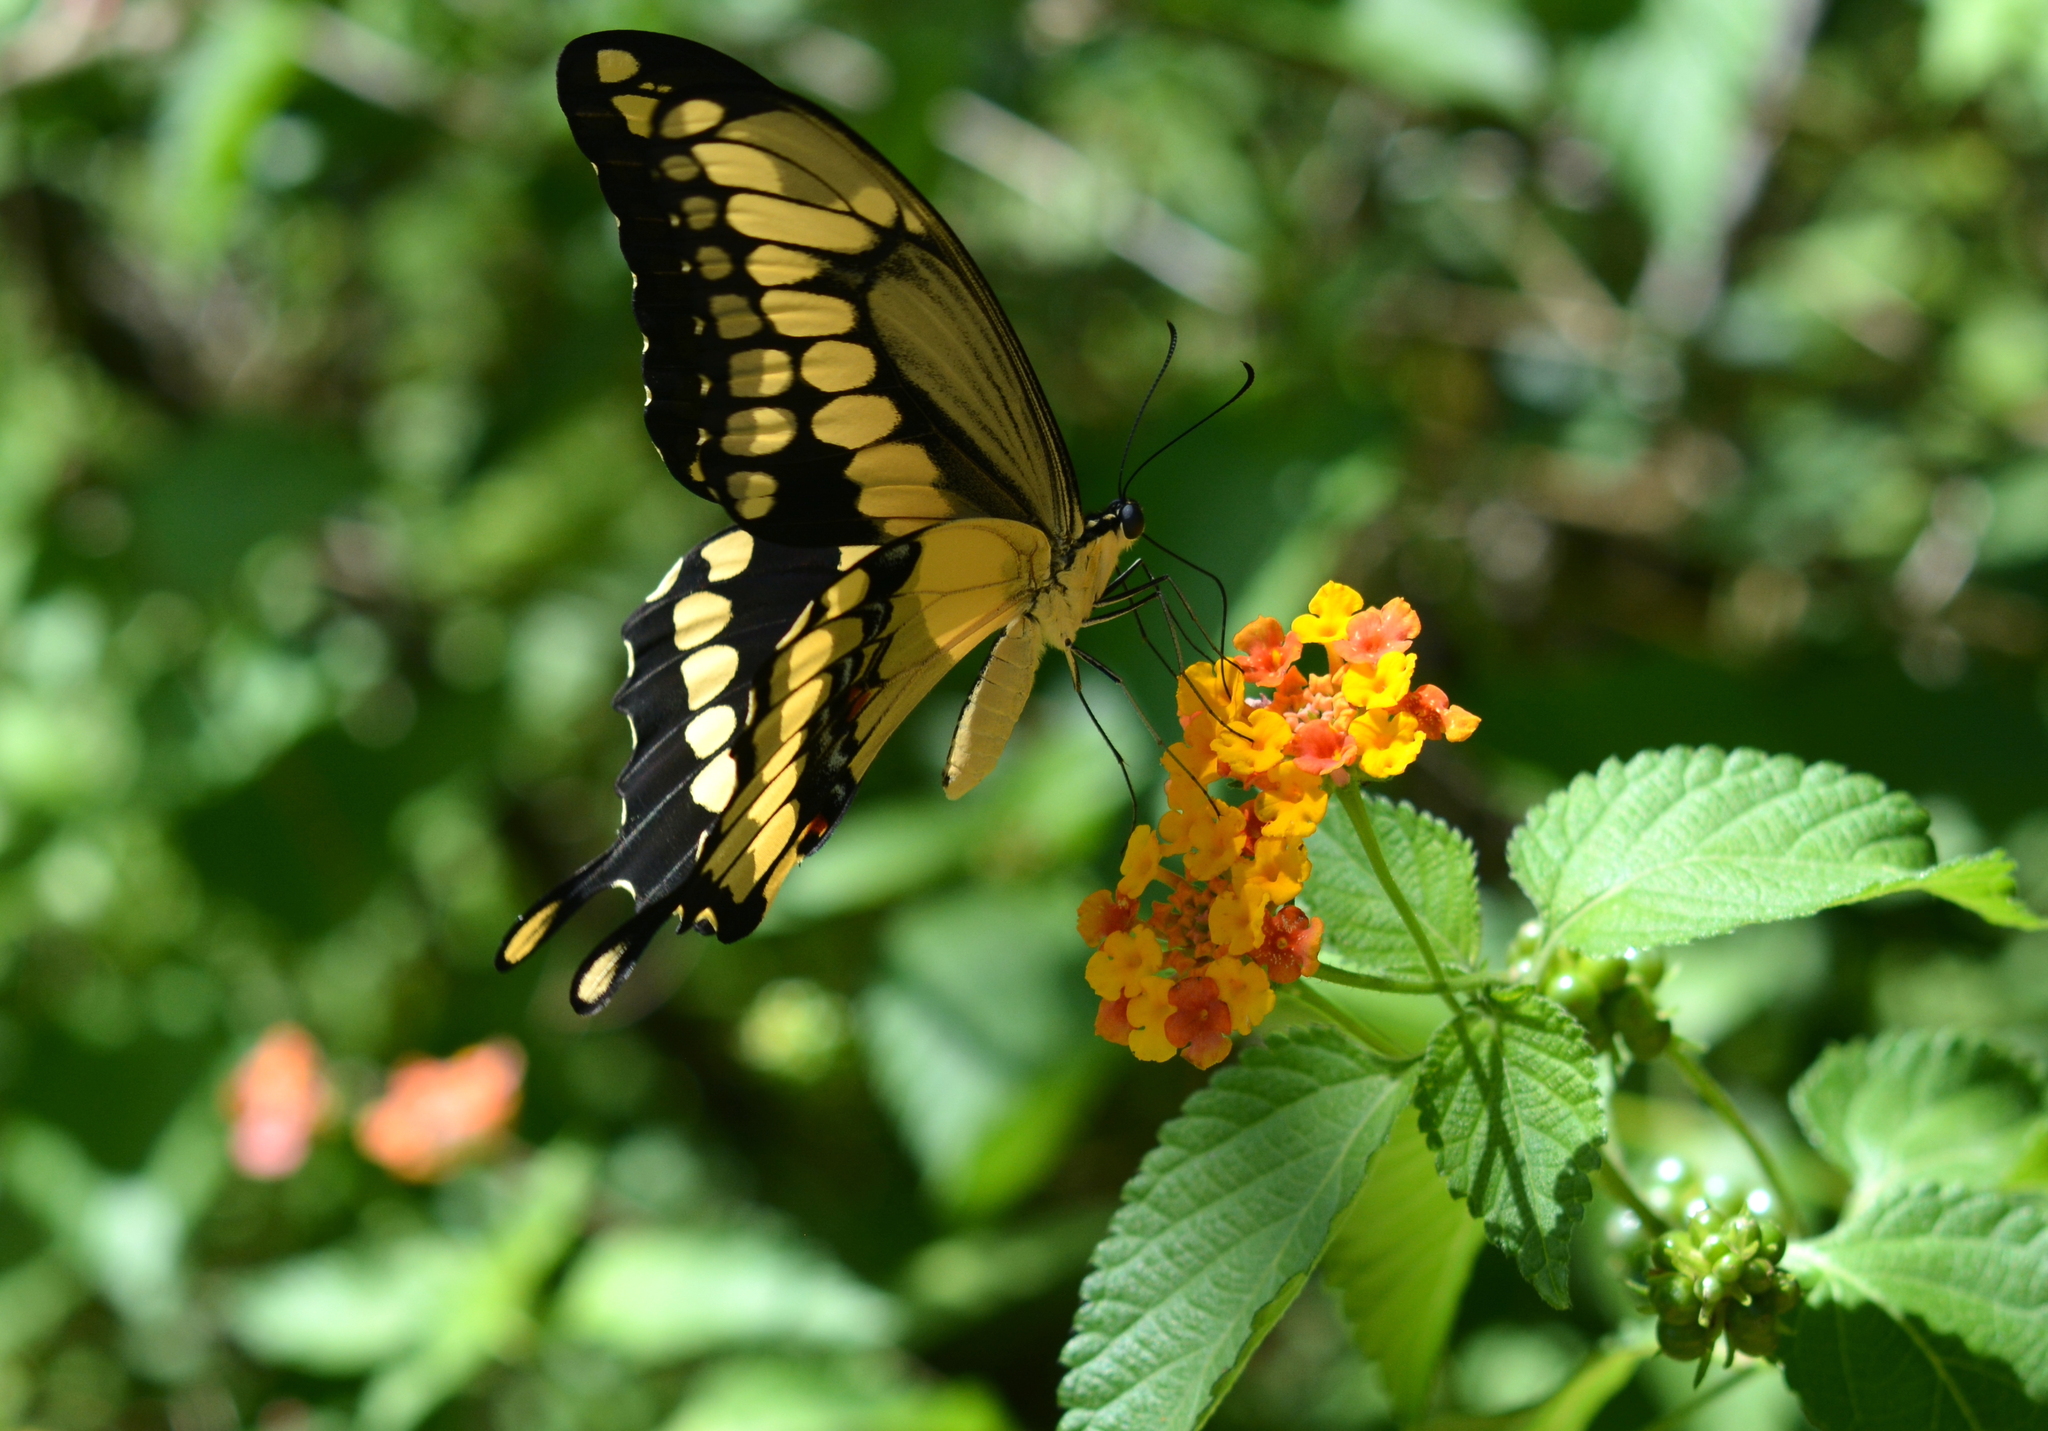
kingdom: Animalia
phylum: Arthropoda
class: Insecta
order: Lepidoptera
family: Papilionidae
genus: Papilio
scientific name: Papilio cresphontes
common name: Giant swallowtail
